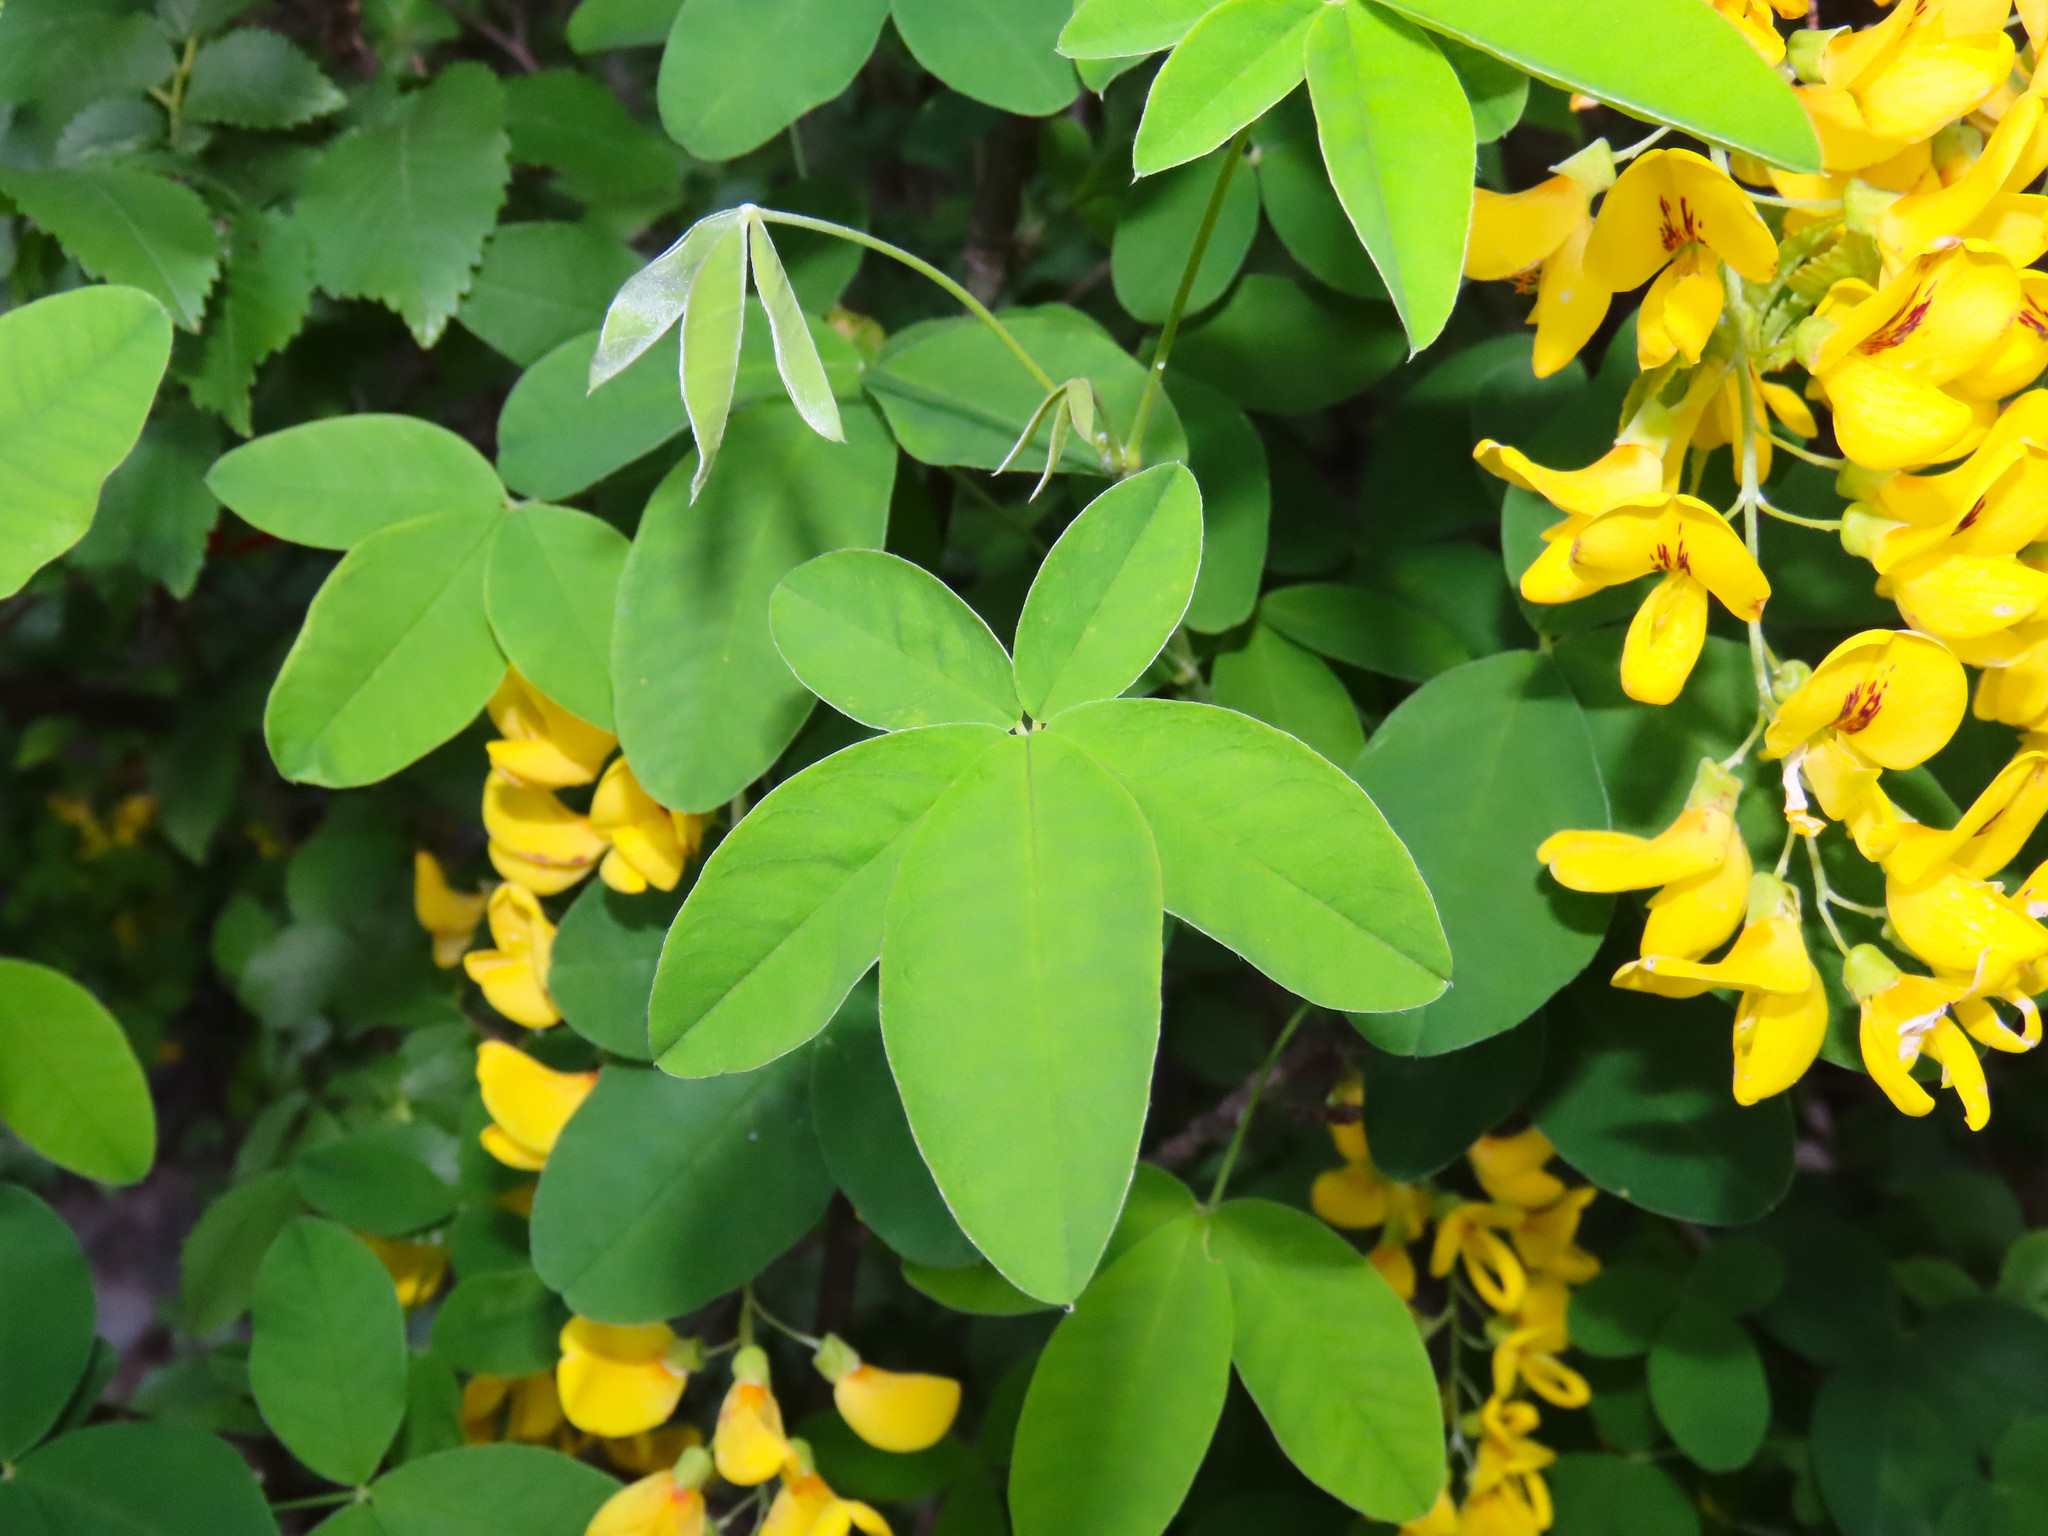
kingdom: Plantae
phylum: Tracheophyta
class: Magnoliopsida
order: Fabales
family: Fabaceae
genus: Laburnum
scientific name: Laburnum anagyroides
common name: Laburnum
